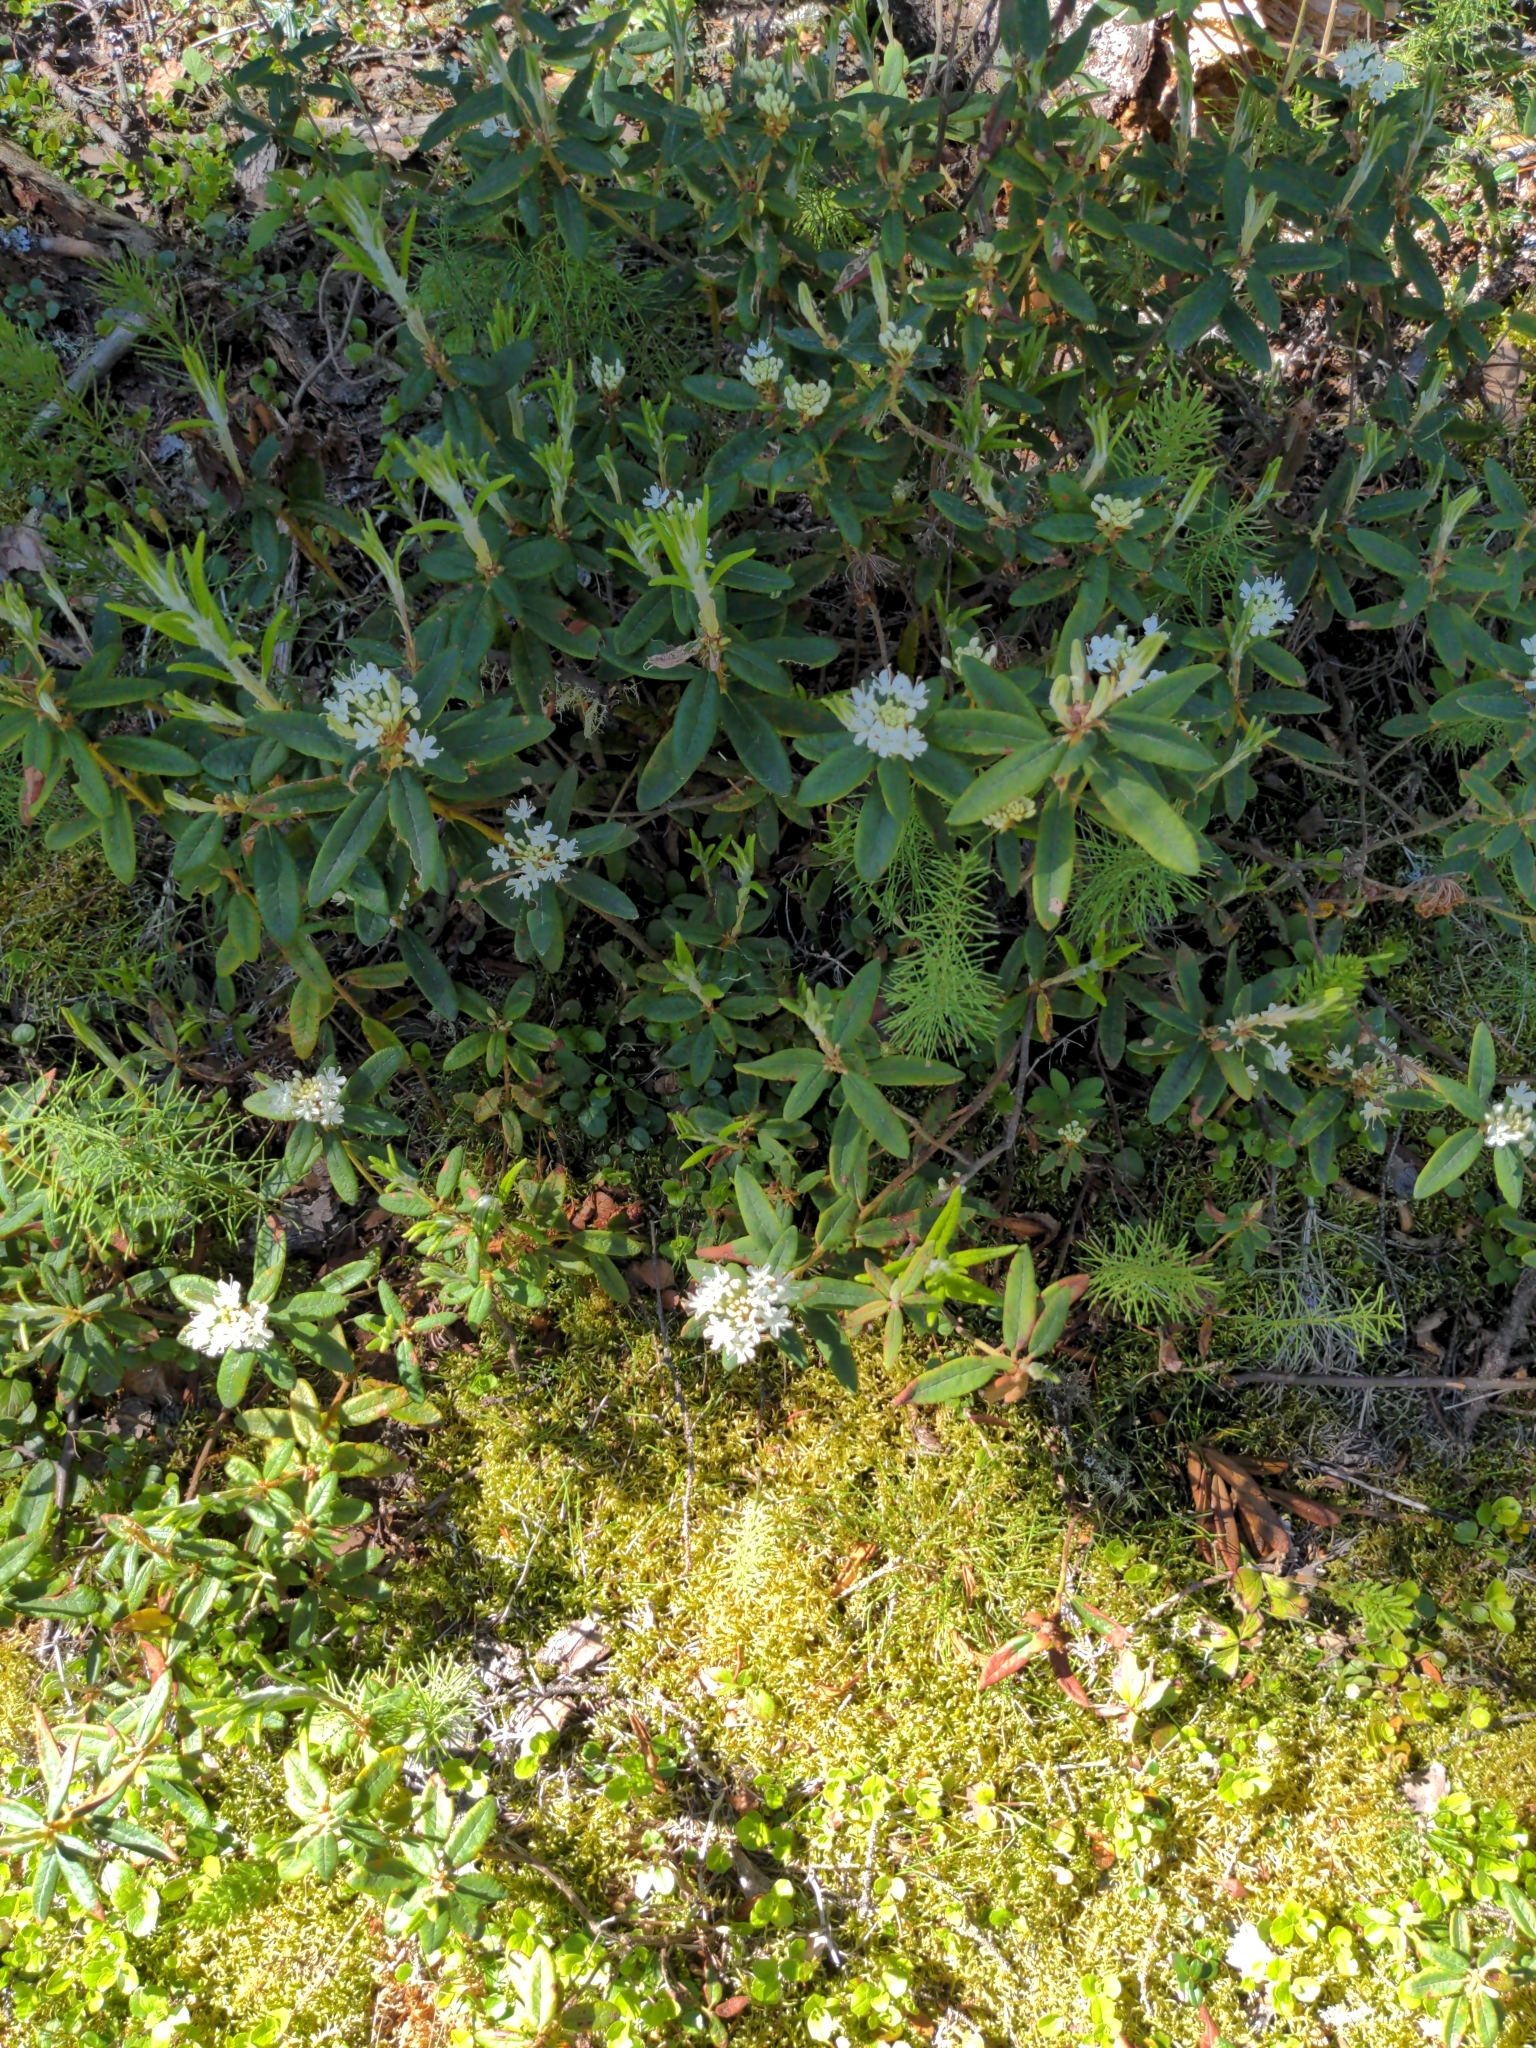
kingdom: Plantae
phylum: Tracheophyta
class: Magnoliopsida
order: Ericales
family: Ericaceae
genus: Rhododendron
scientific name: Rhododendron groenlandicum
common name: Bog labrador tea
